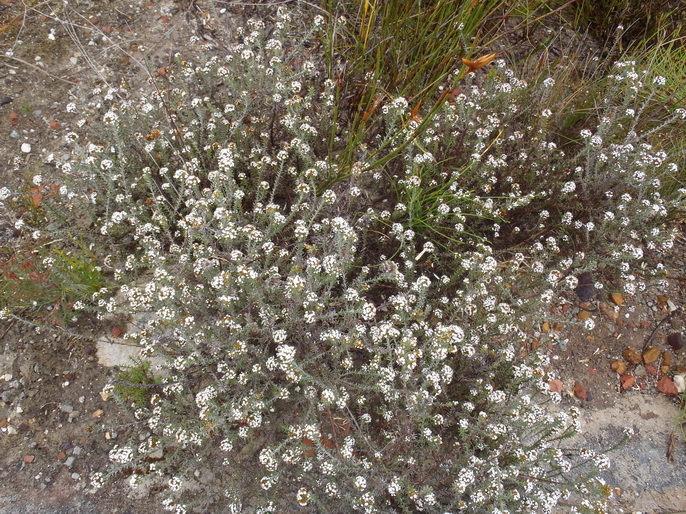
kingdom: Plantae
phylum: Tracheophyta
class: Magnoliopsida
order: Asterales
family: Asteraceae
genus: Disparago
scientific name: Disparago laxifolia
